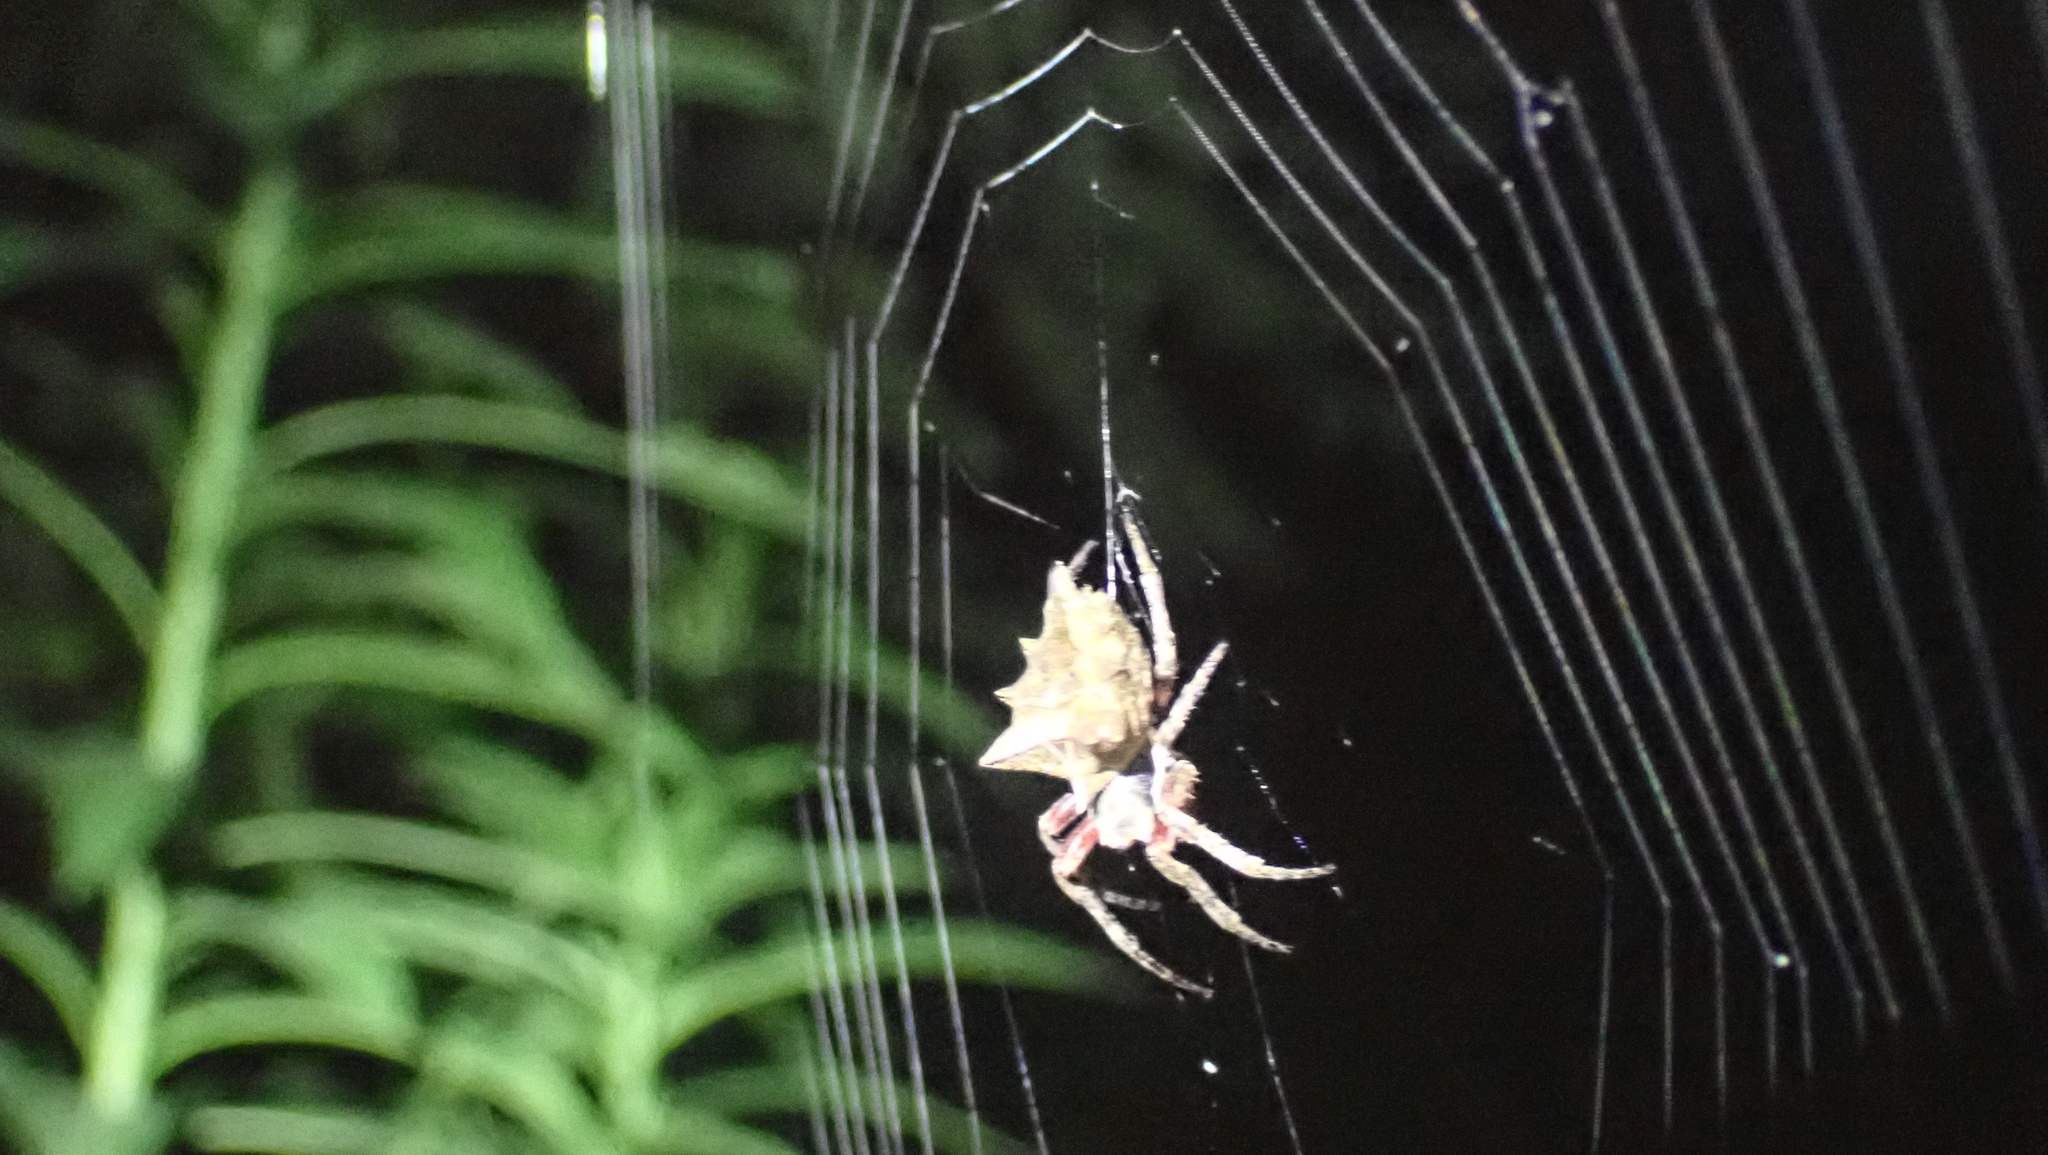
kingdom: Animalia
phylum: Arthropoda
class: Arachnida
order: Araneae
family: Araneidae
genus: Acanthepeira
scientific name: Acanthepeira stellata
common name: Starbellied orbweaver
